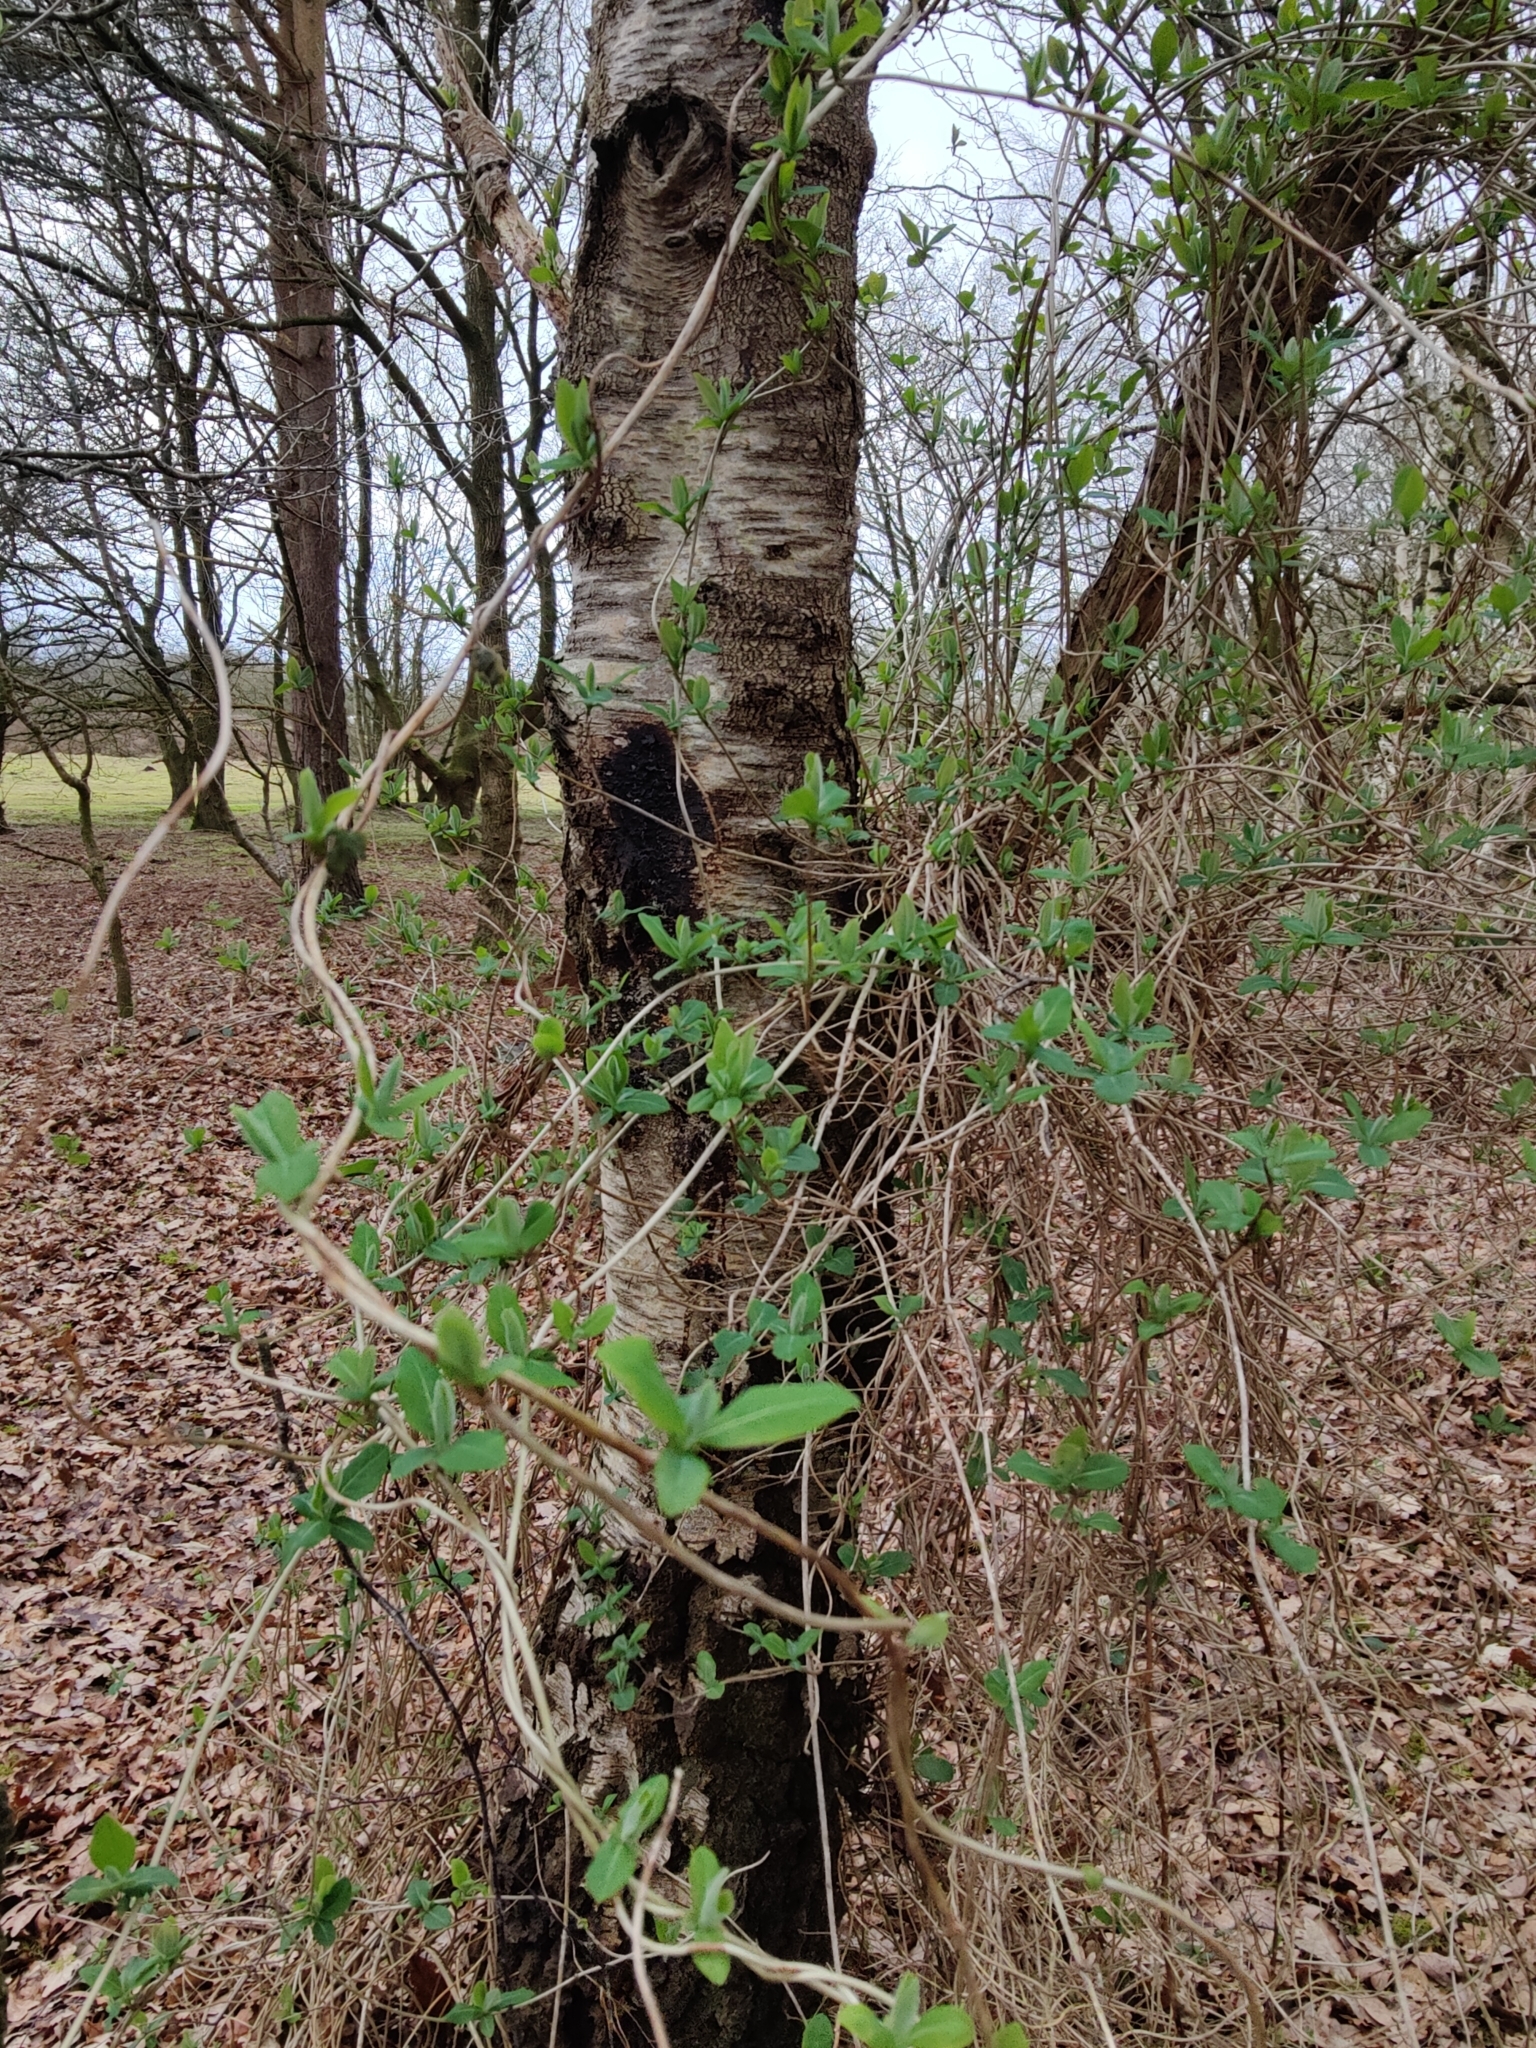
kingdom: Plantae
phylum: Tracheophyta
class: Magnoliopsida
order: Dipsacales
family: Caprifoliaceae
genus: Lonicera
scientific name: Lonicera periclymenum
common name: European honeysuckle
